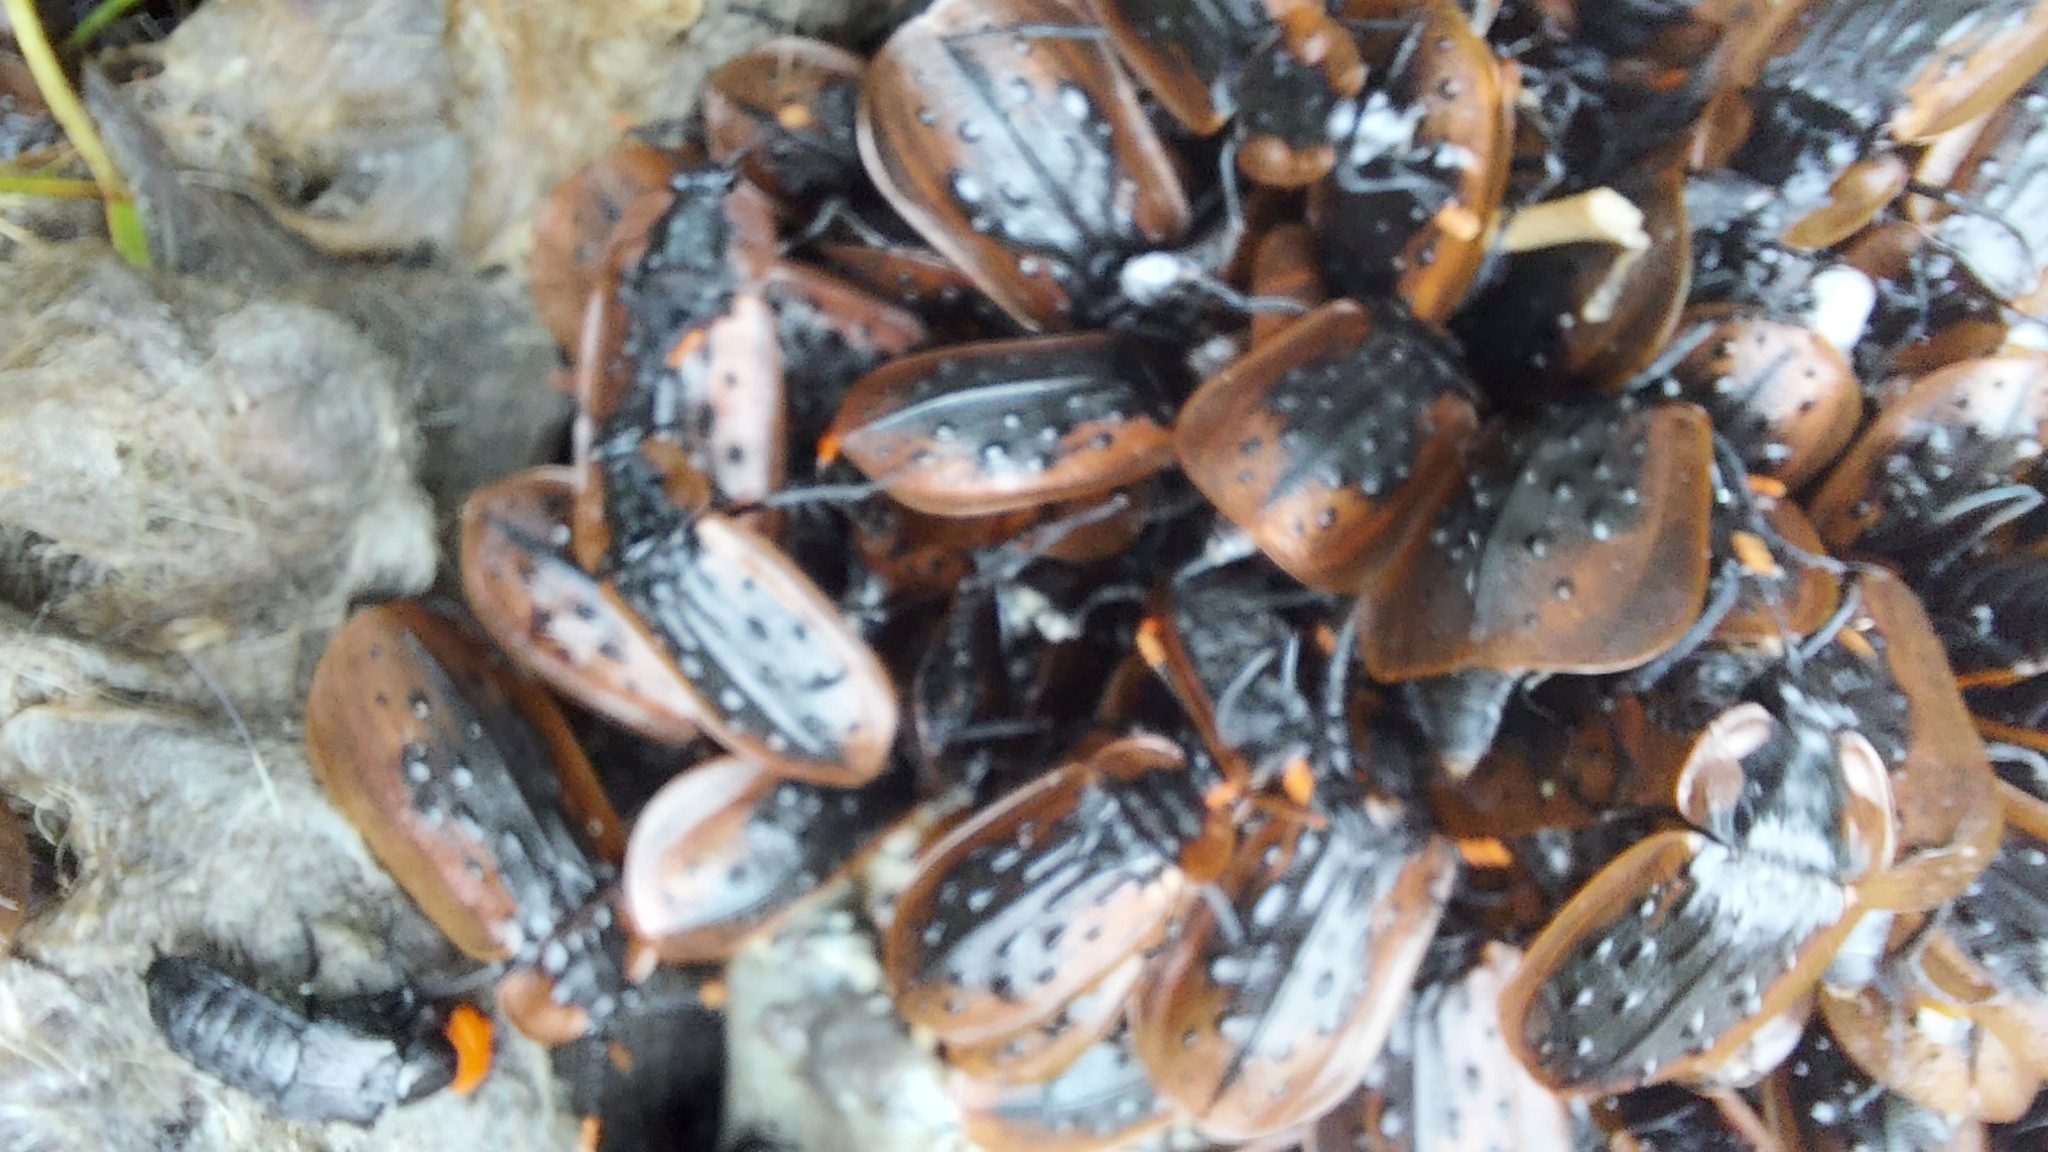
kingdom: Animalia
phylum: Arthropoda
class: Insecta
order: Coleoptera
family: Staphylinidae
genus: Ptomaphila
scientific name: Ptomaphila lacrymosa
